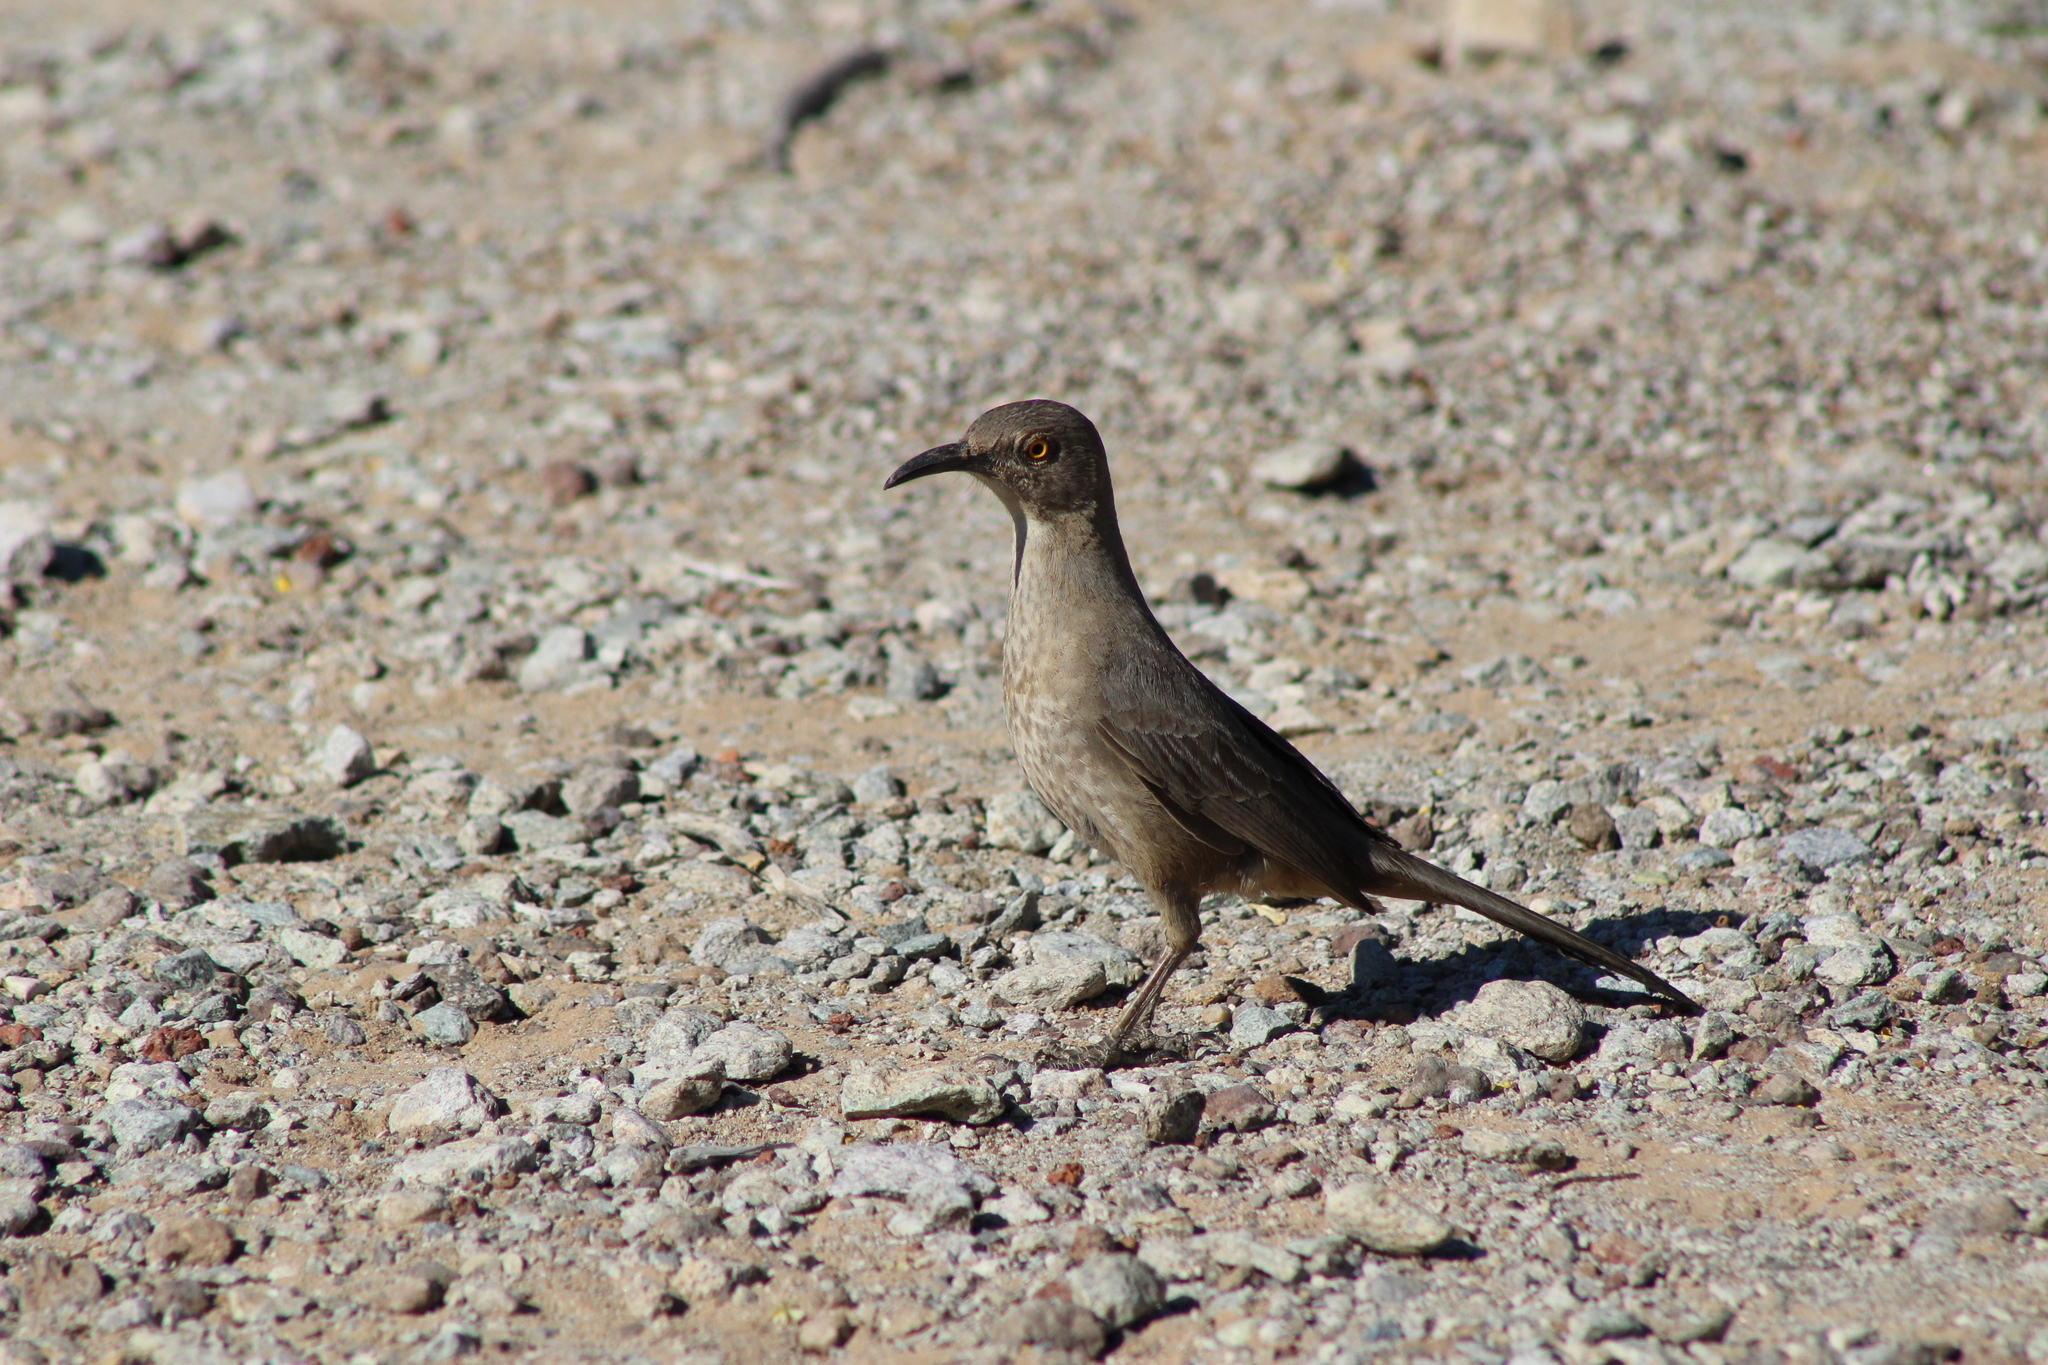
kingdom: Animalia
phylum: Chordata
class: Aves
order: Passeriformes
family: Mimidae
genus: Toxostoma
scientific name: Toxostoma curvirostre
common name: Curve-billed thrasher
